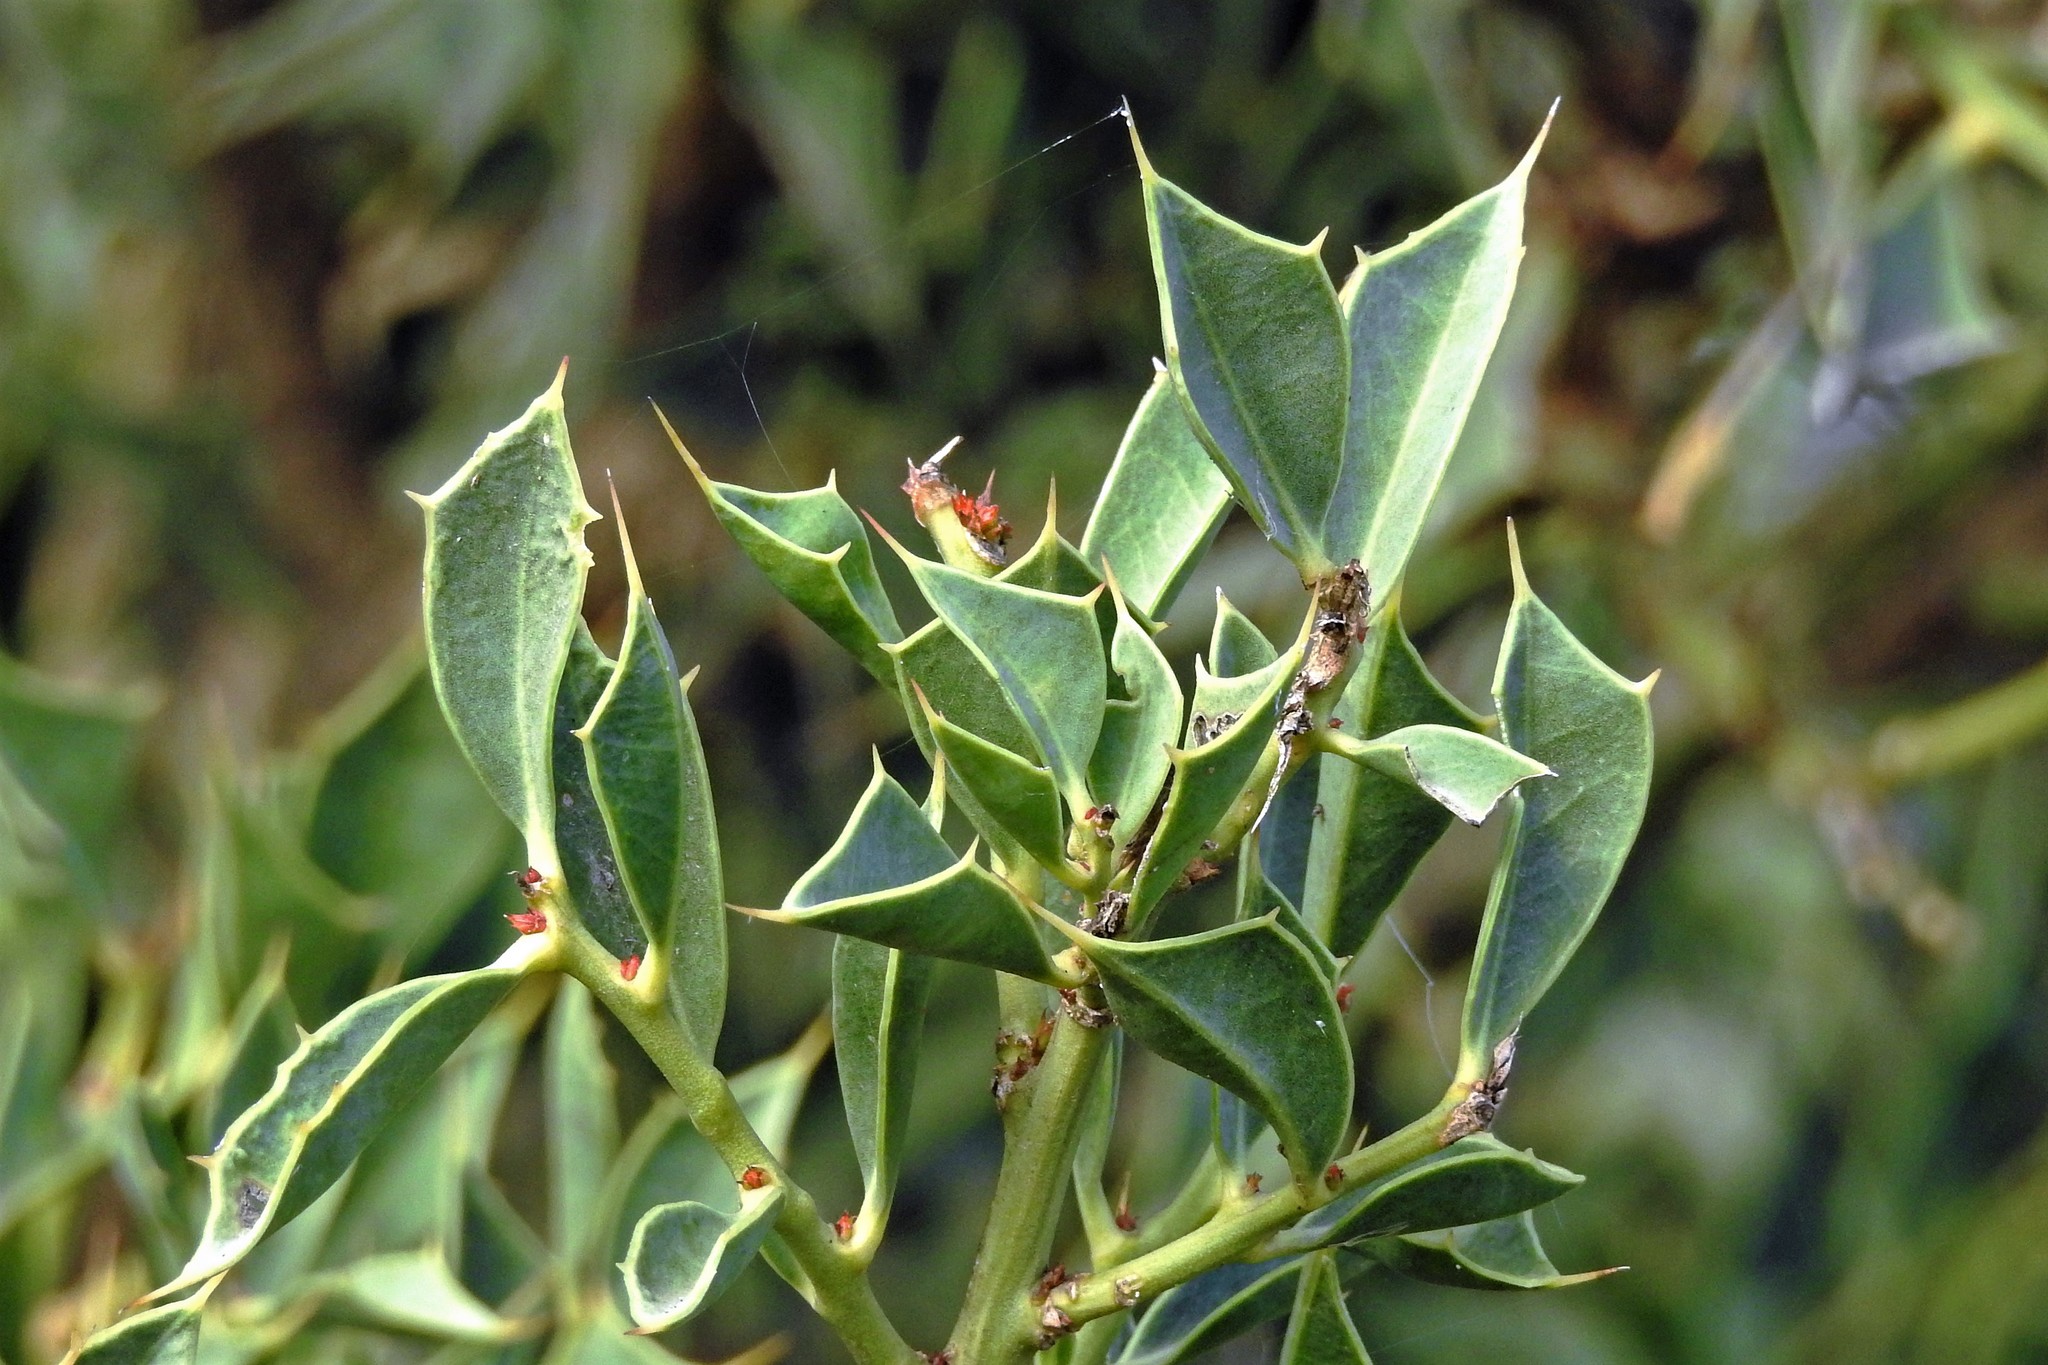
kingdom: Plantae
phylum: Tracheophyta
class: Magnoliopsida
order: Santalales
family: Cervantesiaceae
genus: Jodina
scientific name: Jodina rhombifolia
